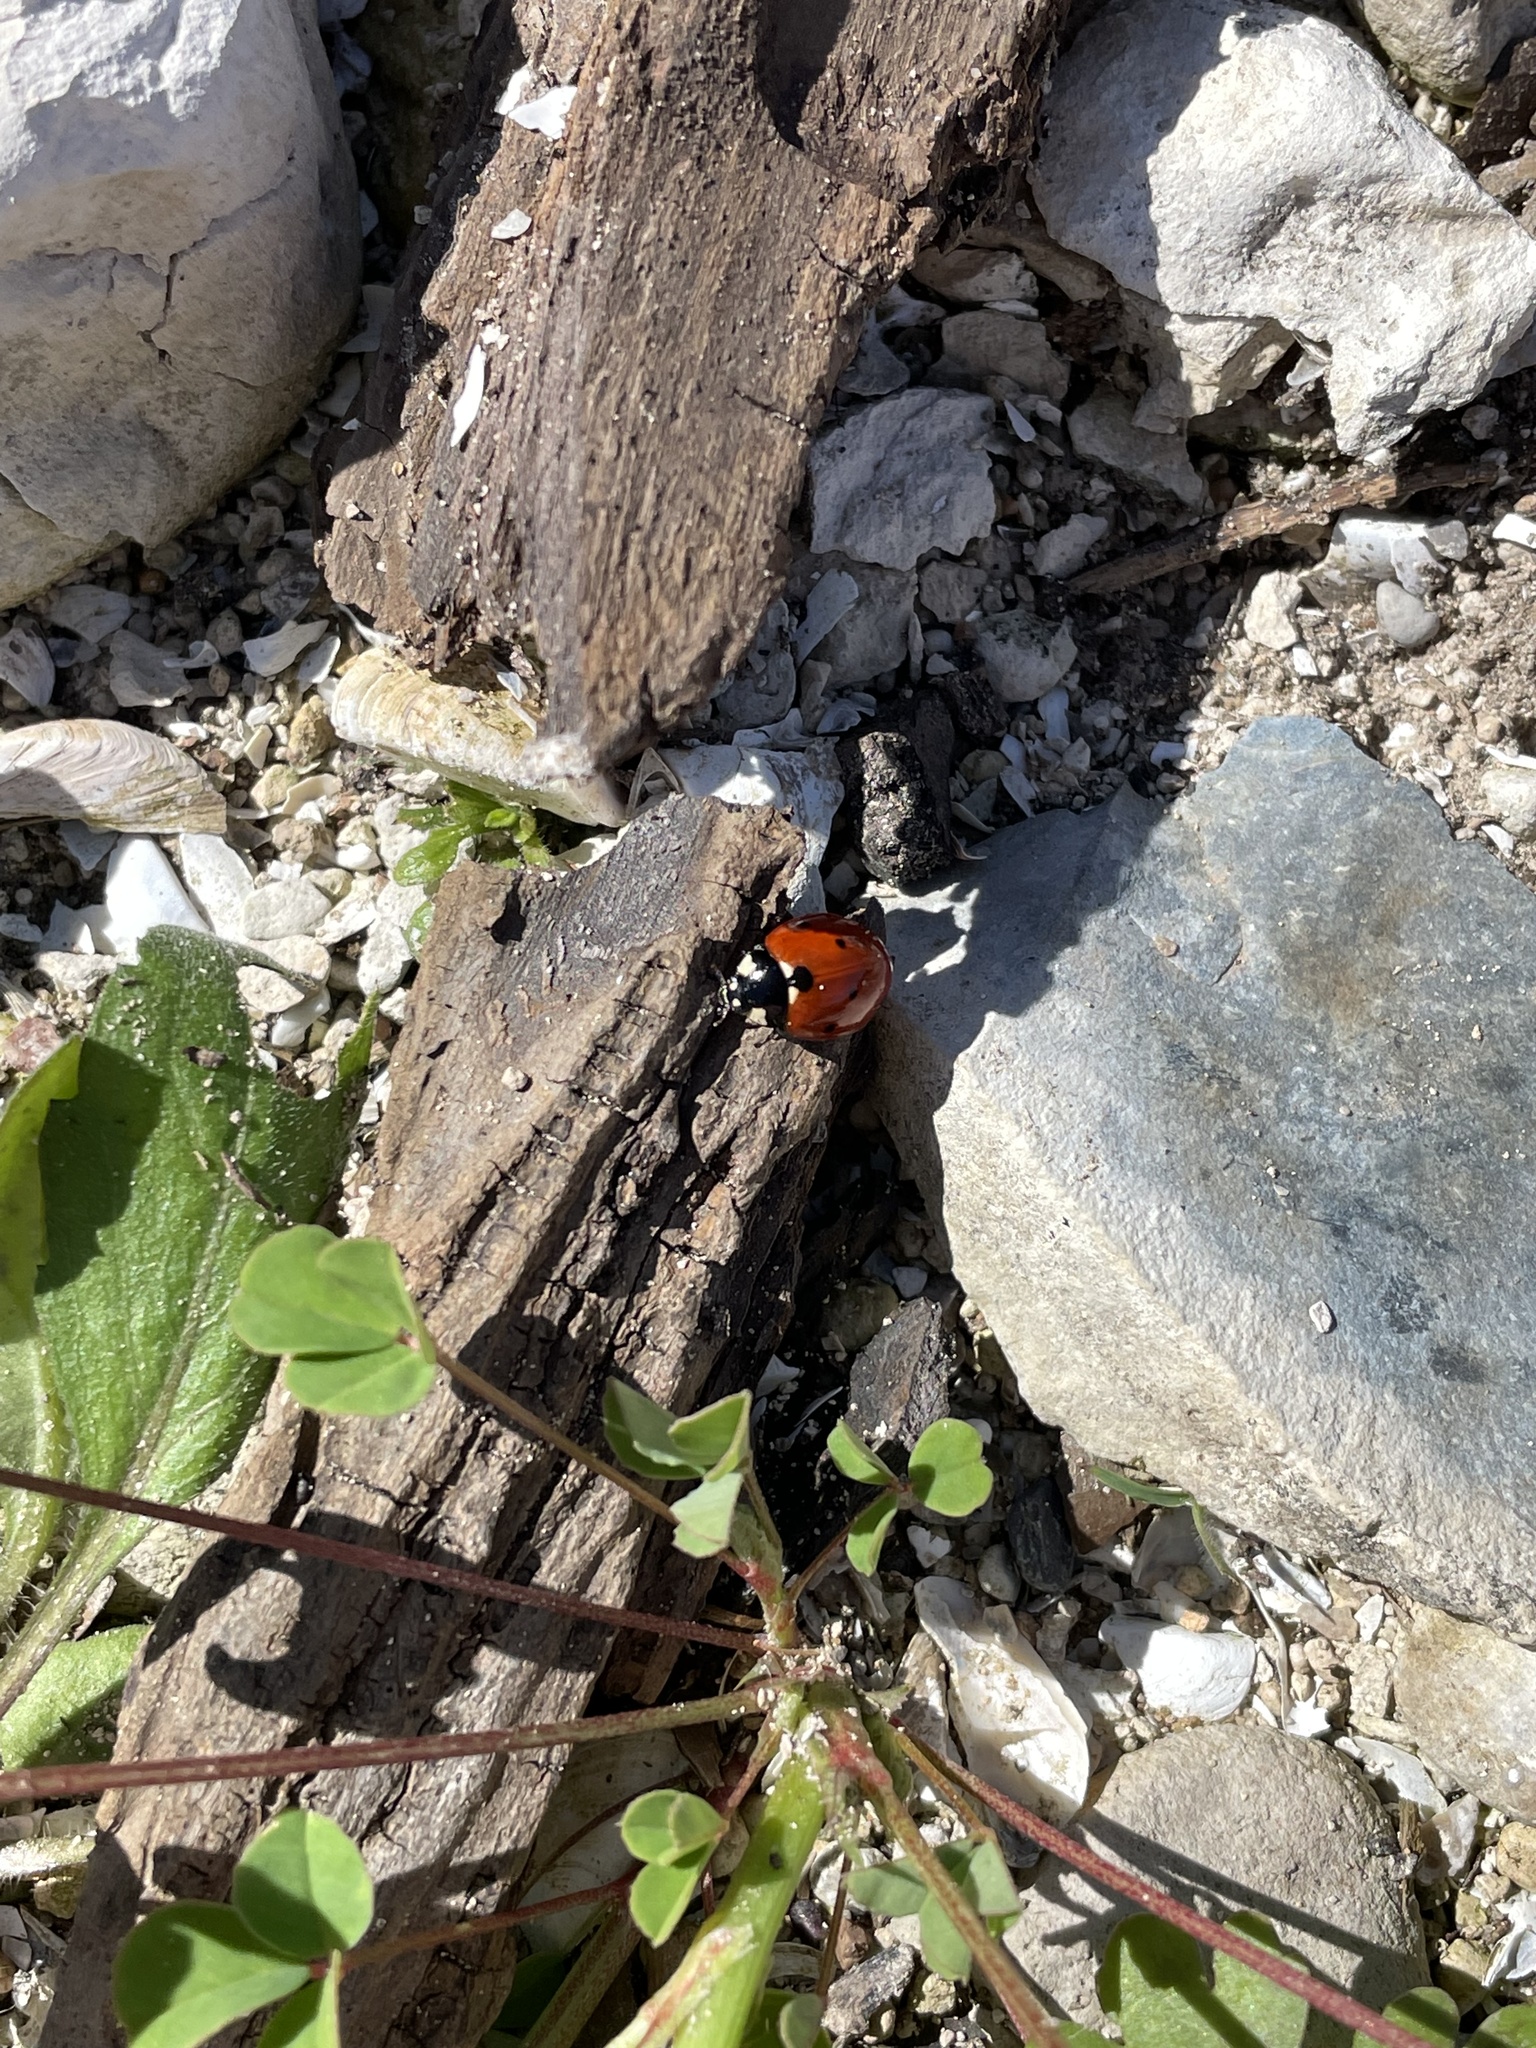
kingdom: Animalia
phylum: Arthropoda
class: Insecta
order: Coleoptera
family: Coccinellidae
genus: Coccinella
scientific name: Coccinella septempunctata
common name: Sevenspotted lady beetle
